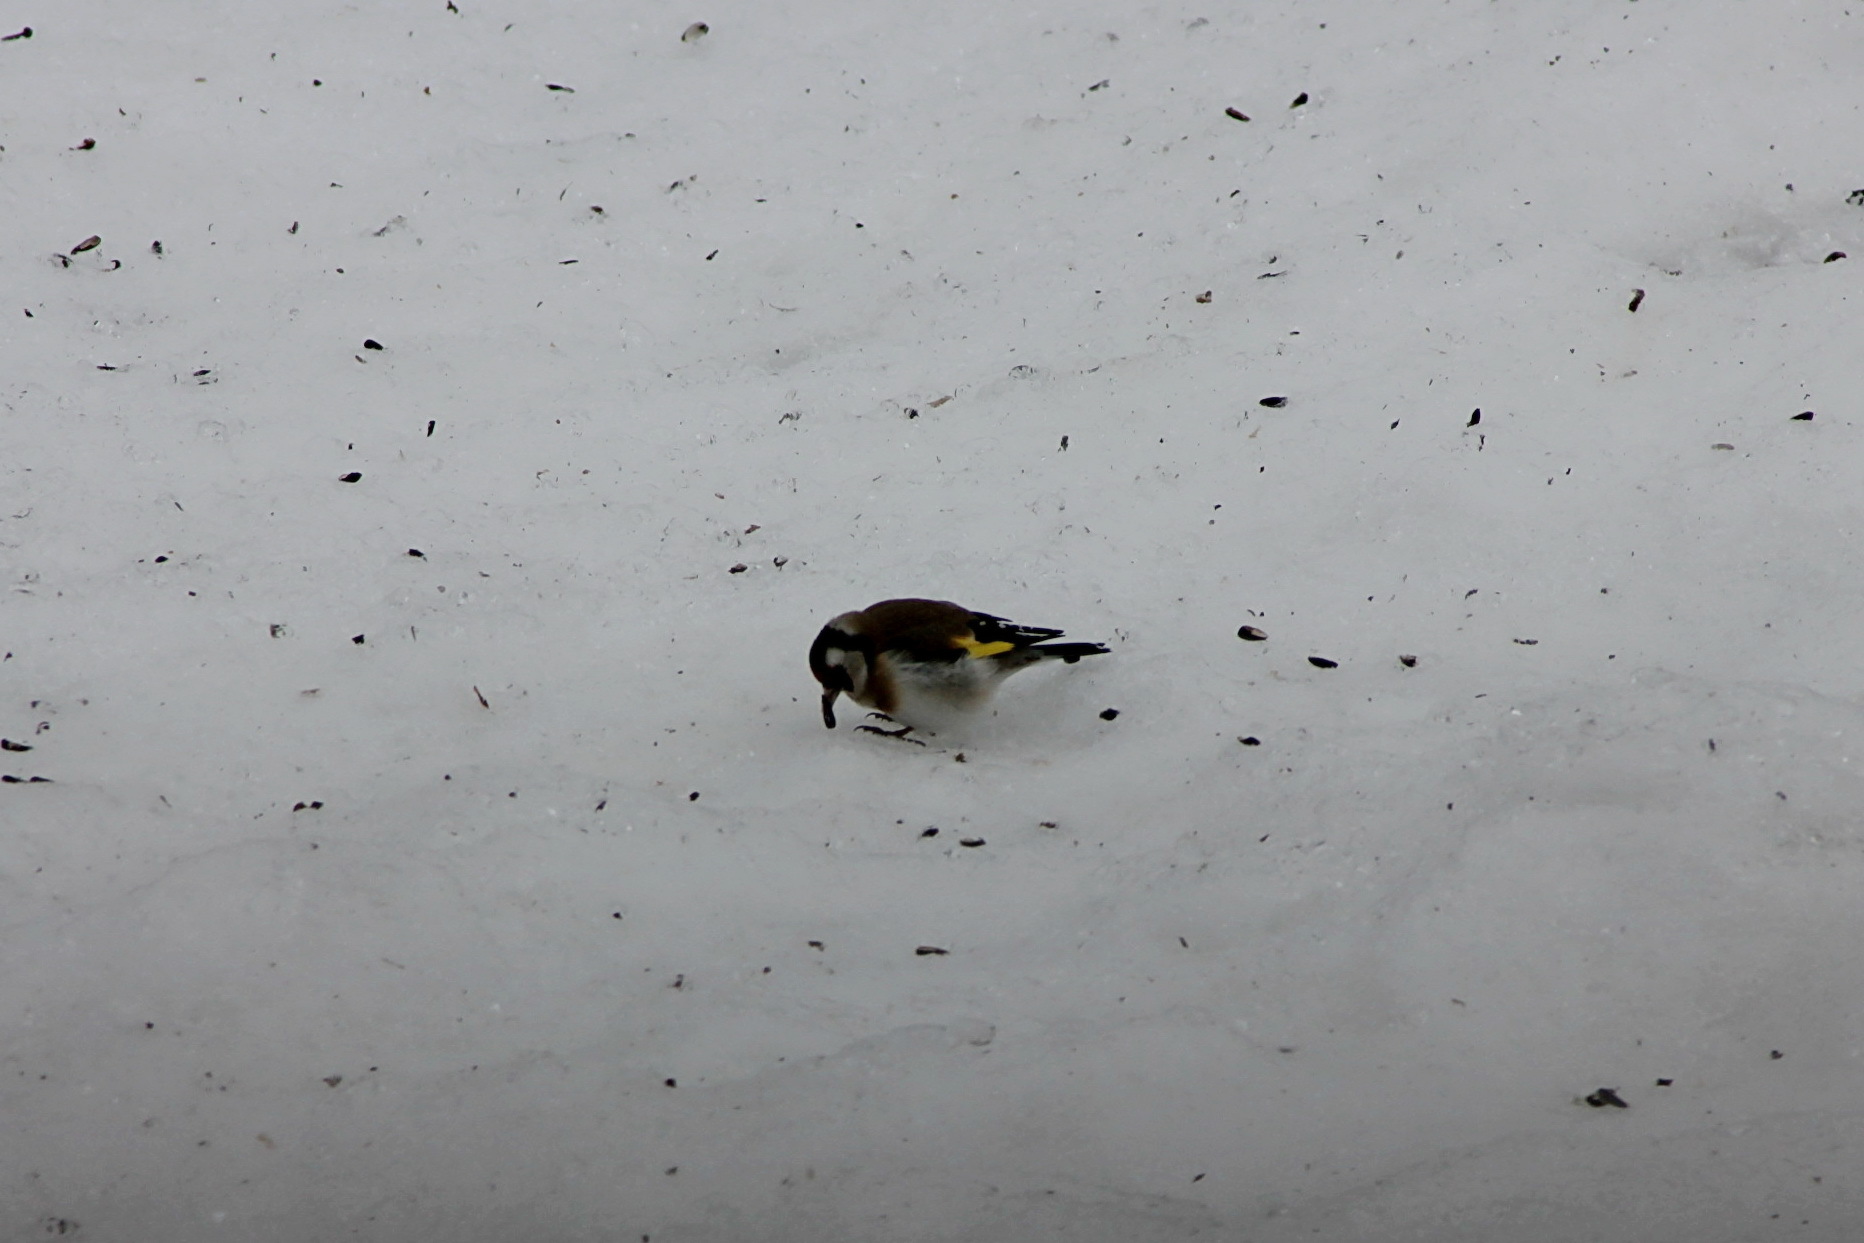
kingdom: Animalia
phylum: Chordata
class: Aves
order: Passeriformes
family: Fringillidae
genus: Carduelis
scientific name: Carduelis carduelis
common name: European goldfinch
